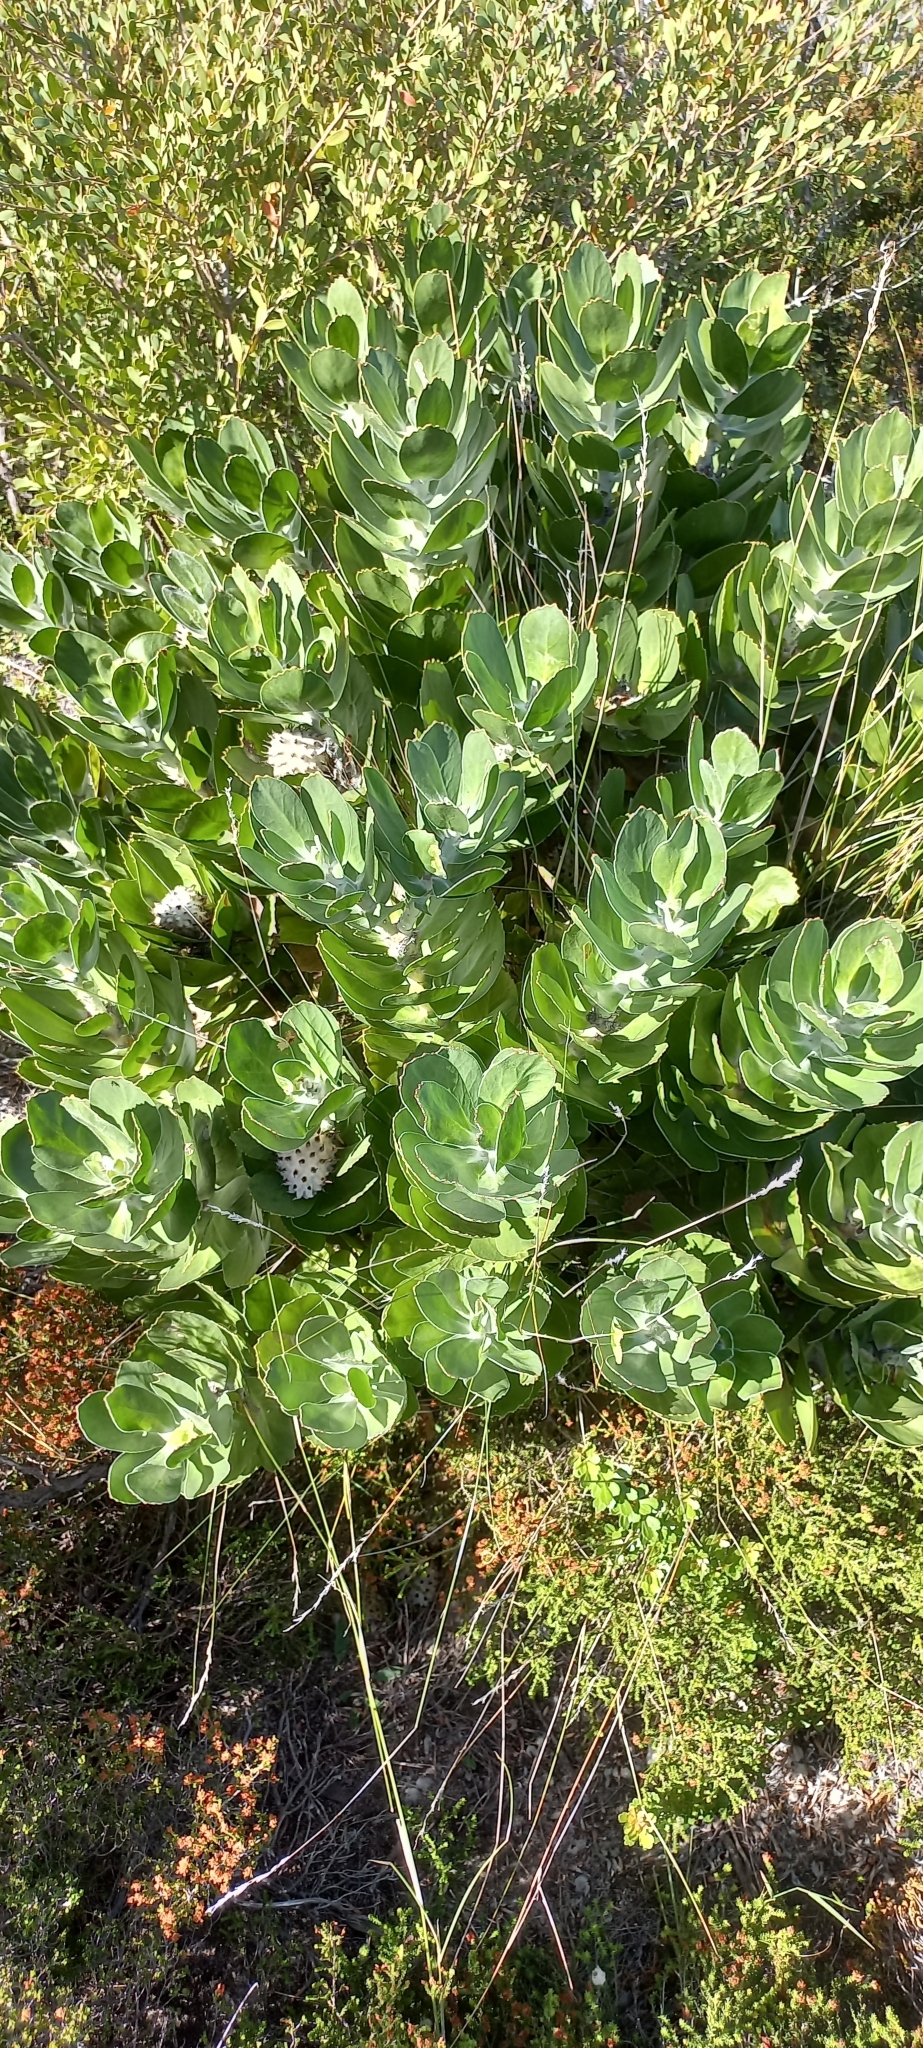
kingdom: Plantae
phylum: Tracheophyta
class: Magnoliopsida
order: Proteales
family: Proteaceae
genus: Leucospermum
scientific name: Leucospermum conocarpodendron
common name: Tree pincushion
